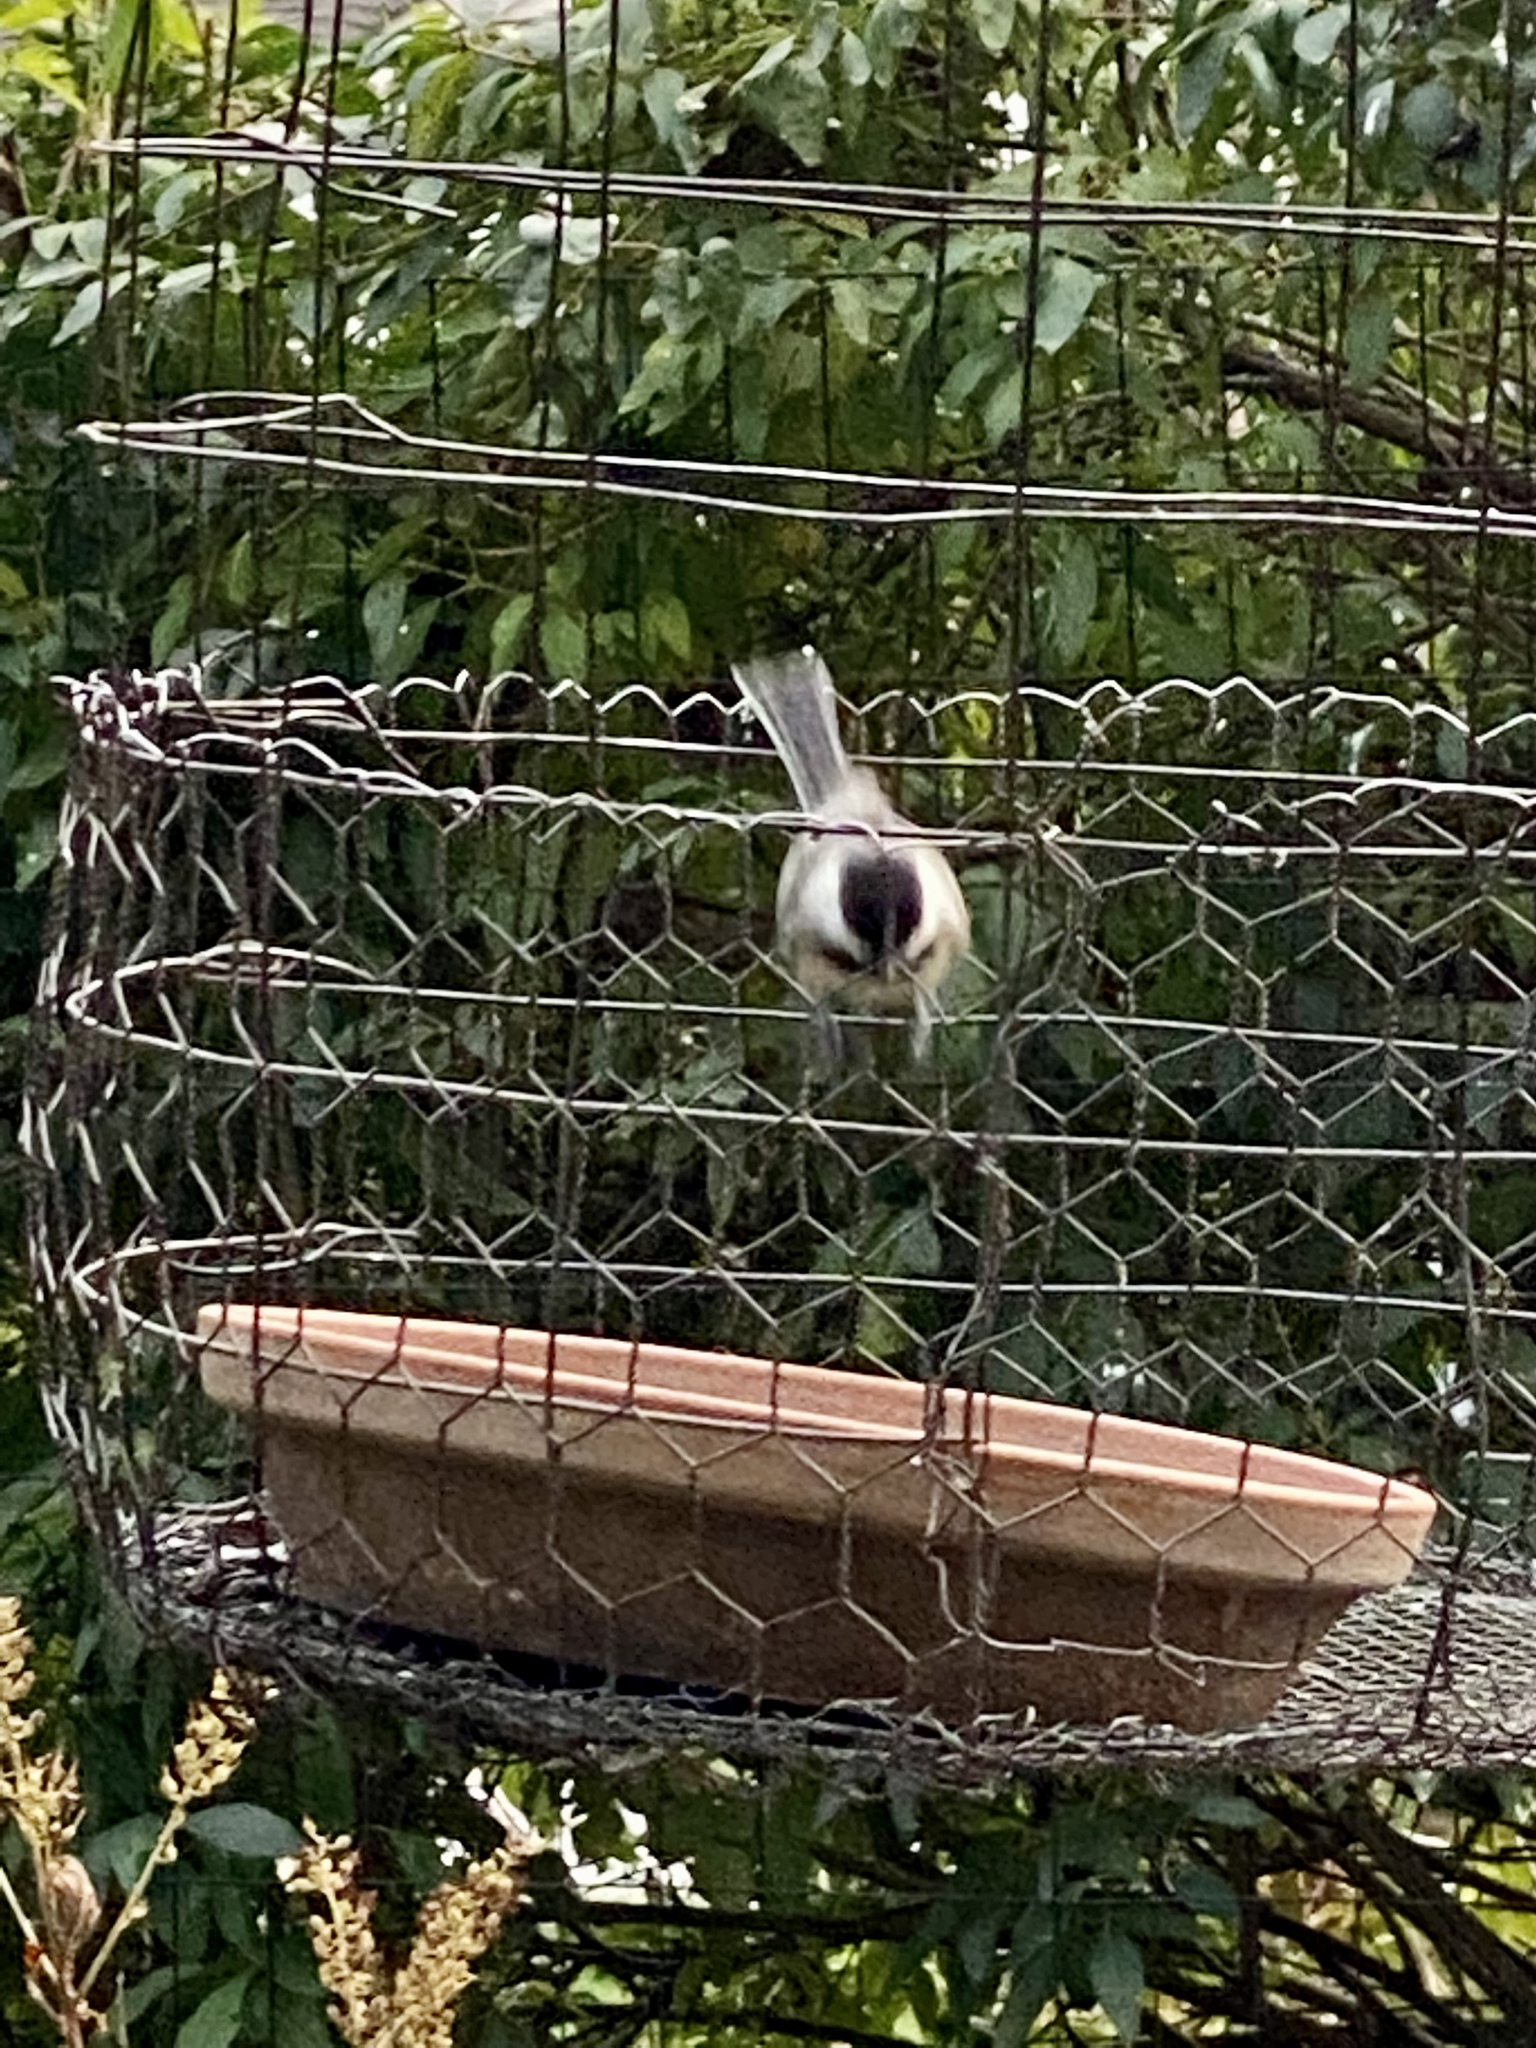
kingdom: Animalia
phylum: Chordata
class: Aves
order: Passeriformes
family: Paridae
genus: Poecile
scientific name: Poecile atricapillus
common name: Black-capped chickadee
